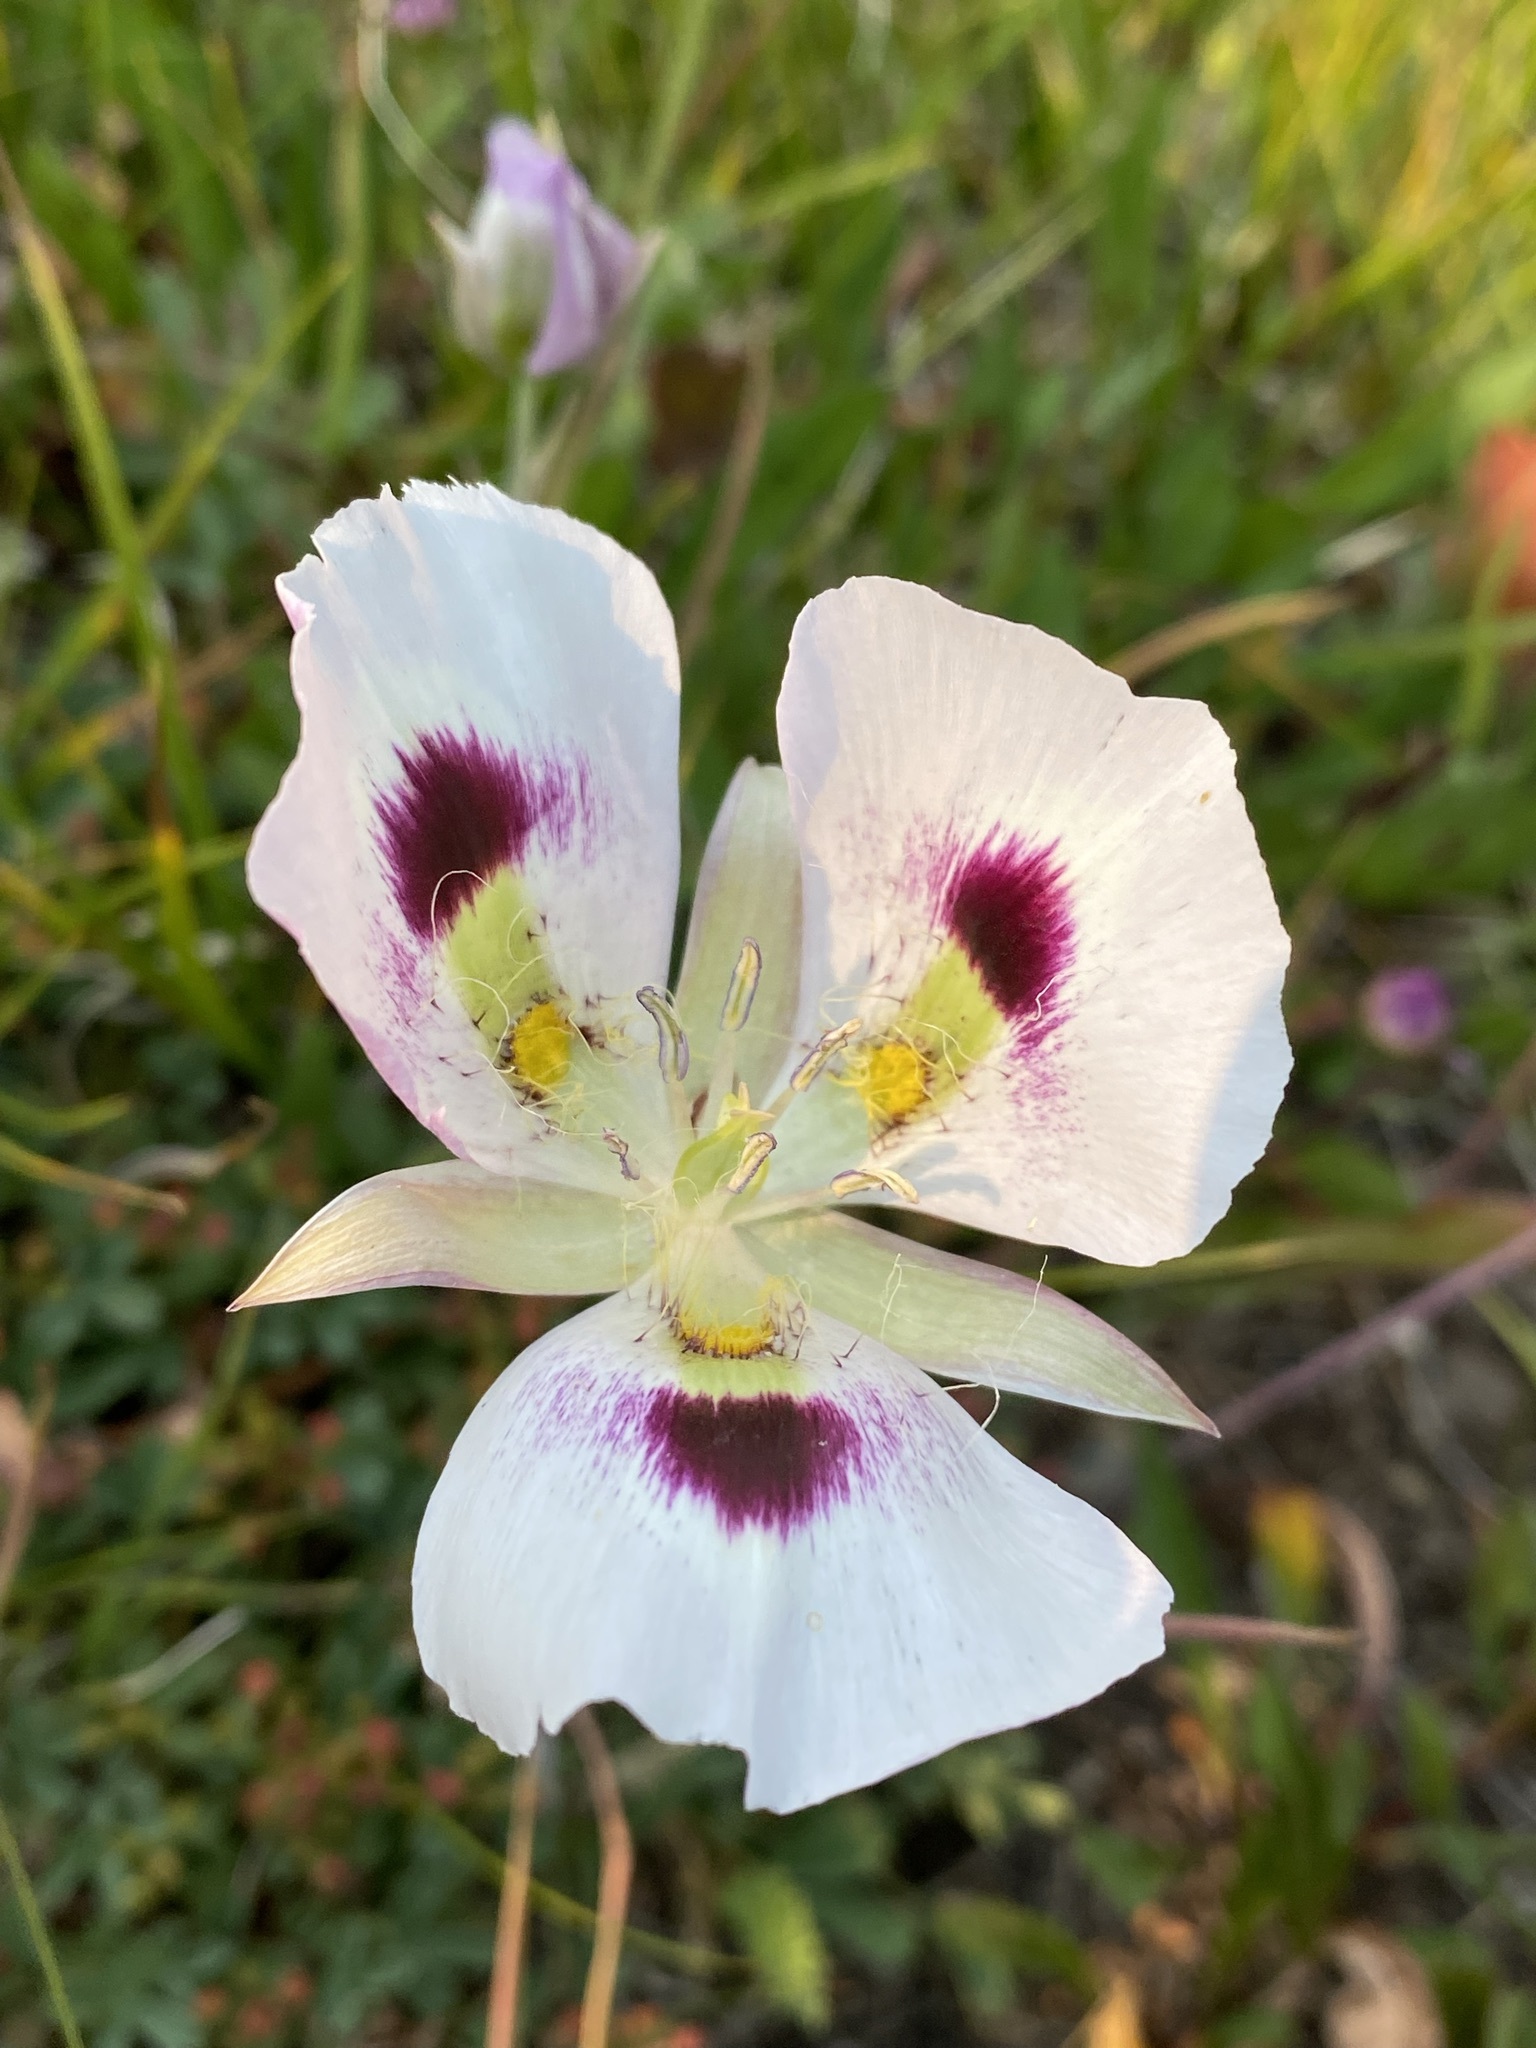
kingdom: Plantae
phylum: Tracheophyta
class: Liliopsida
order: Liliales
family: Liliaceae
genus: Calochortus
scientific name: Calochortus eurycarpus
